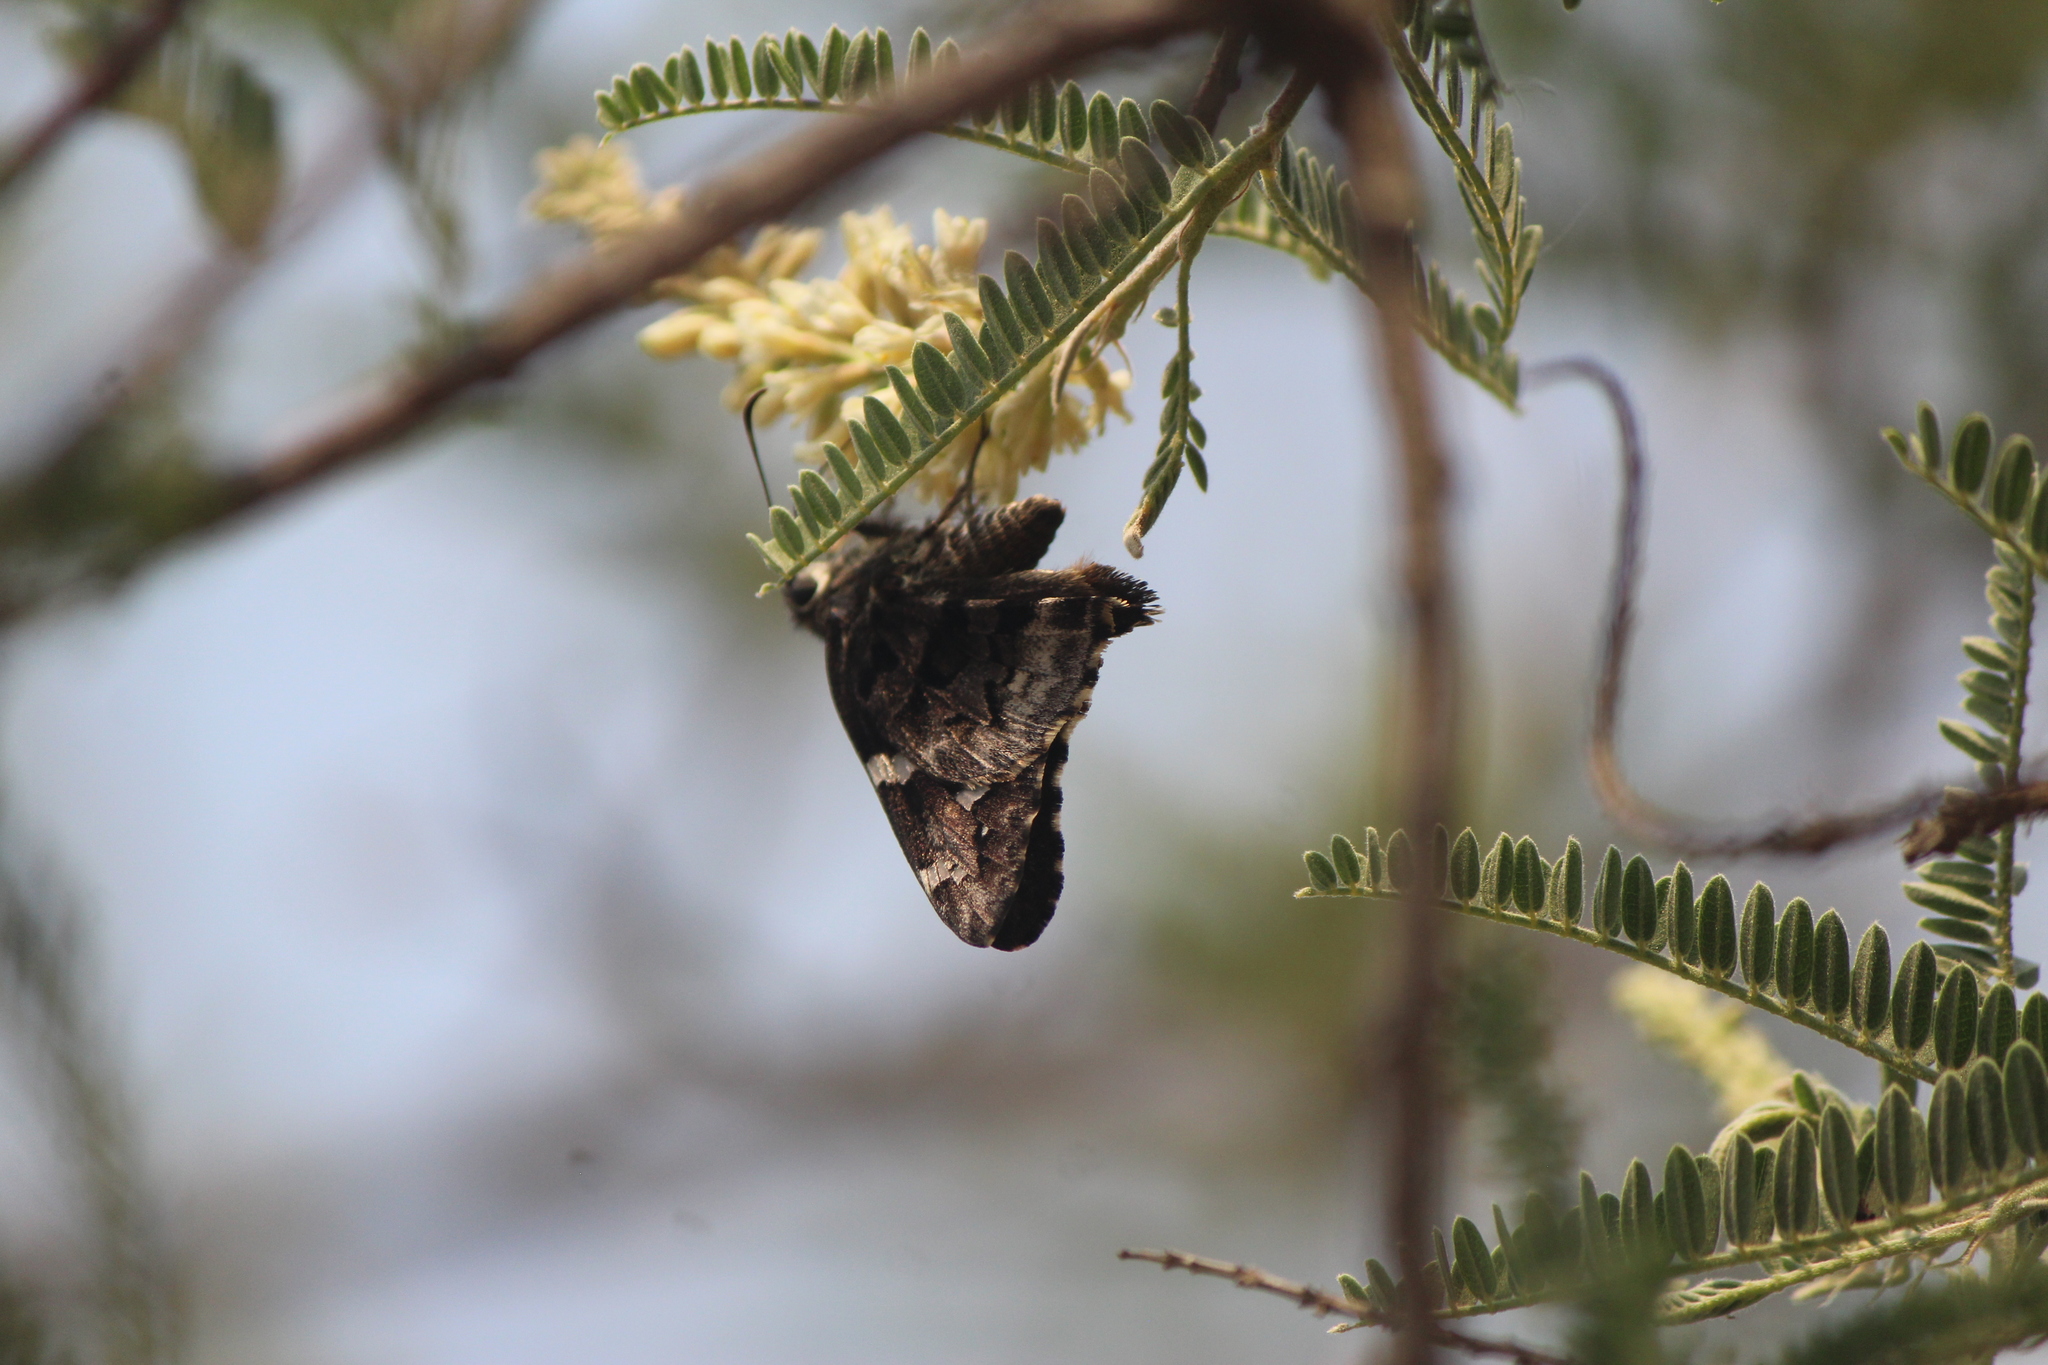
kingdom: Animalia
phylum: Arthropoda
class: Insecta
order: Lepidoptera
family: Hesperiidae
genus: Codatractus
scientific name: Codatractus bryaxis
